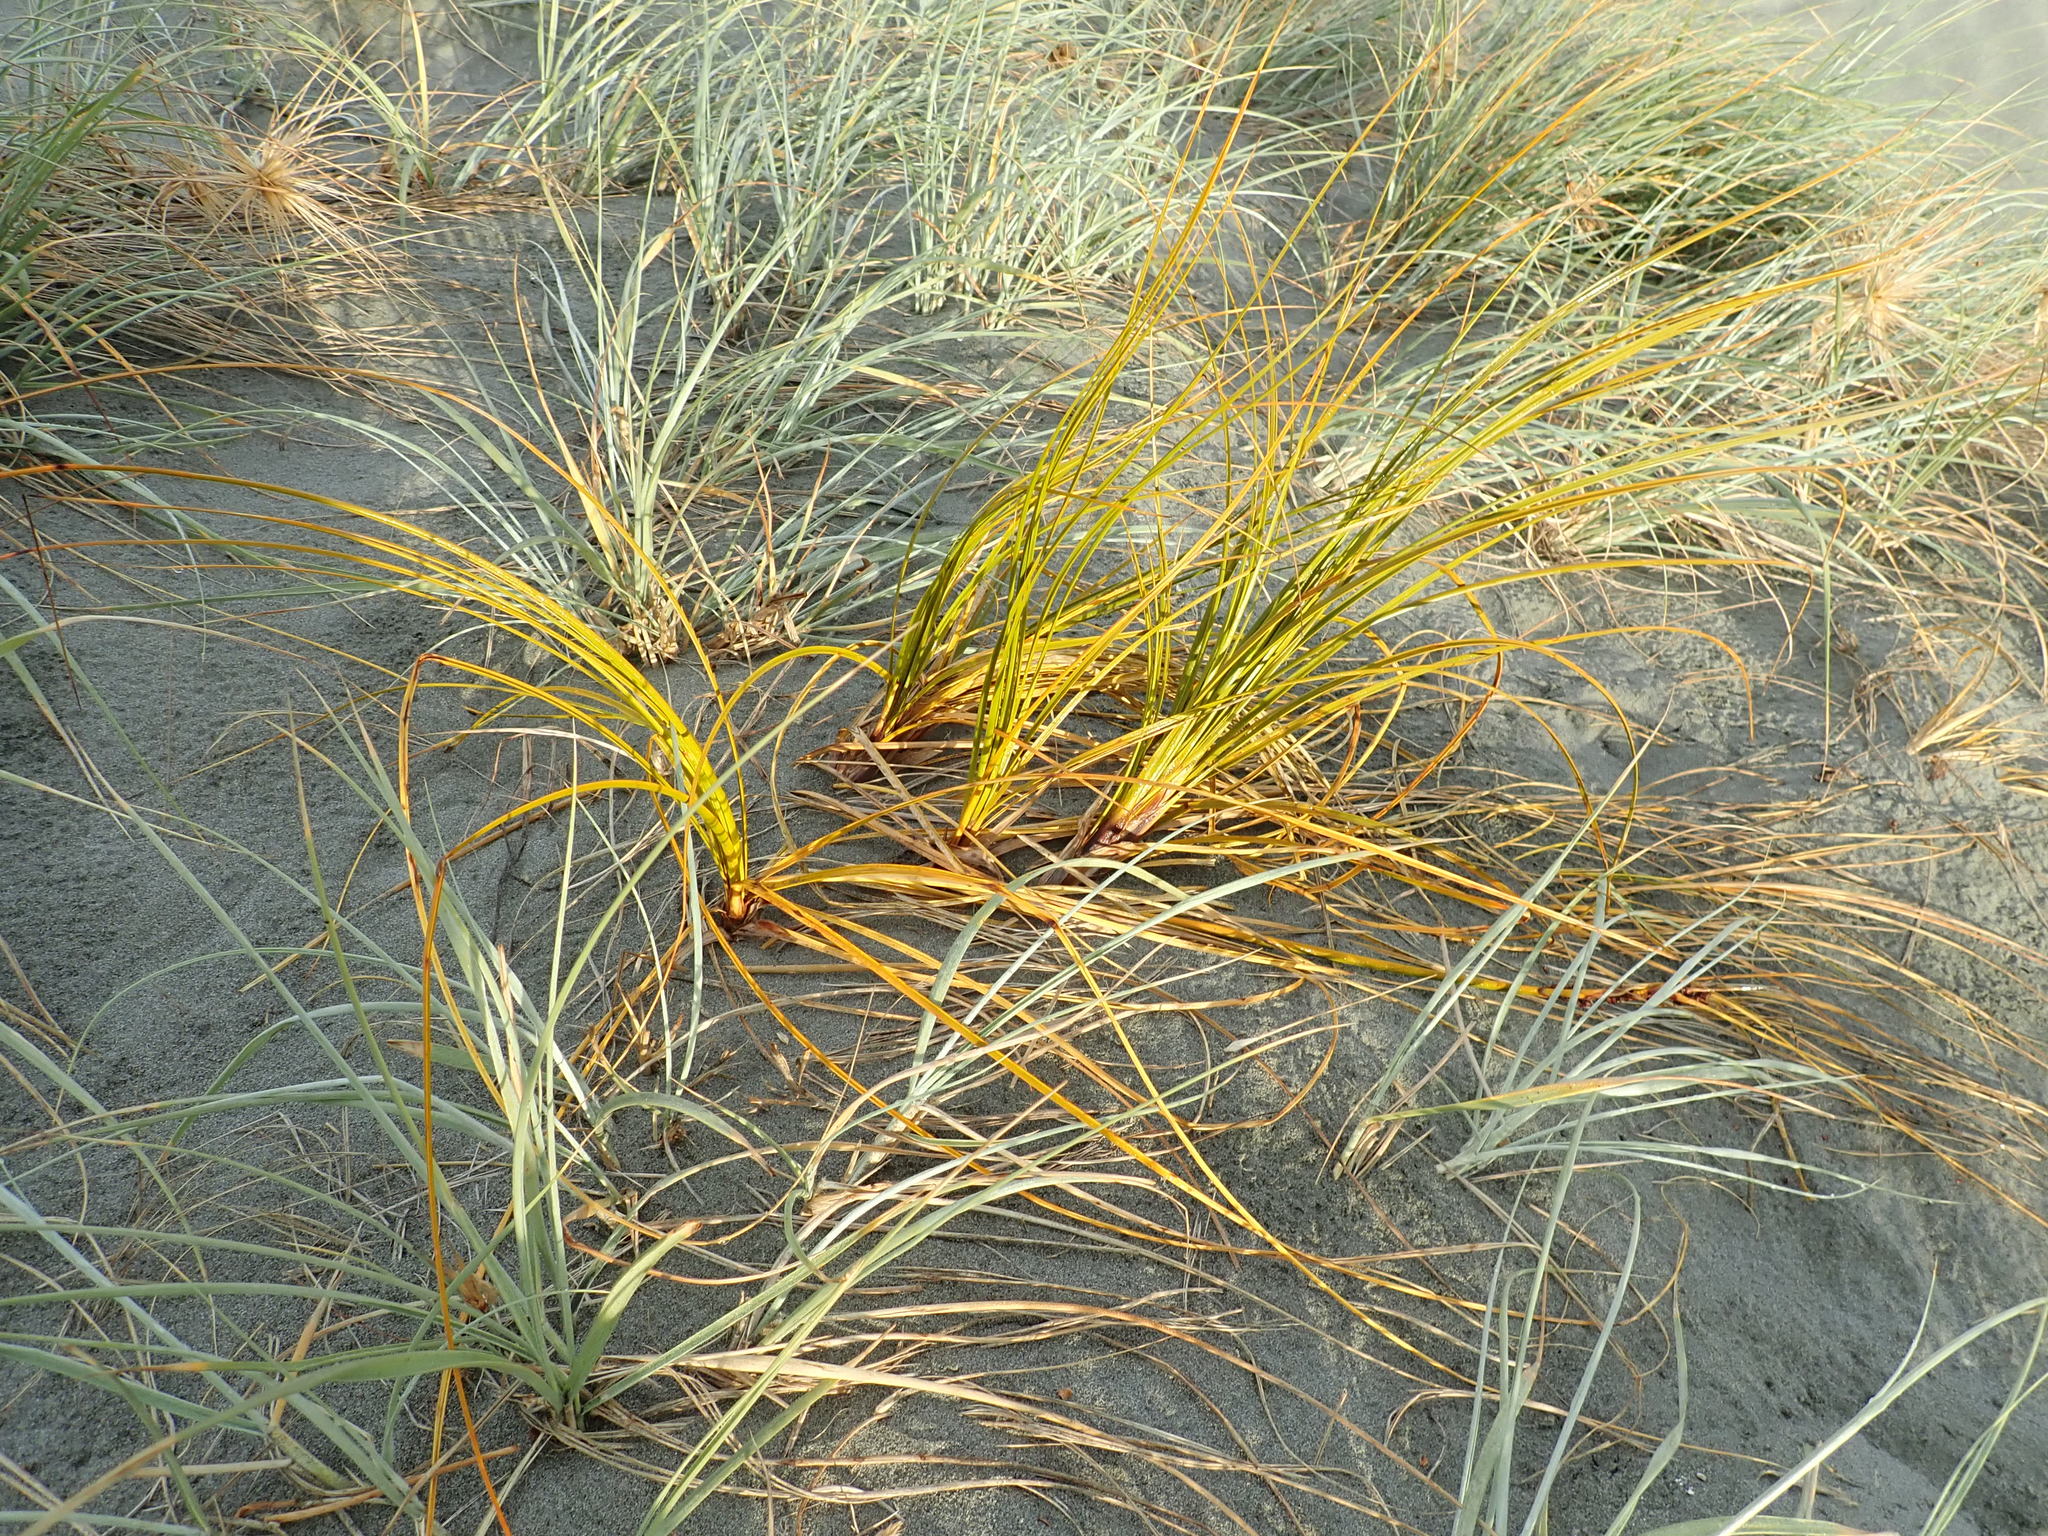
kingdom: Plantae
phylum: Tracheophyta
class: Liliopsida
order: Poales
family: Cyperaceae
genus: Ficinia
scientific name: Ficinia spiralis
